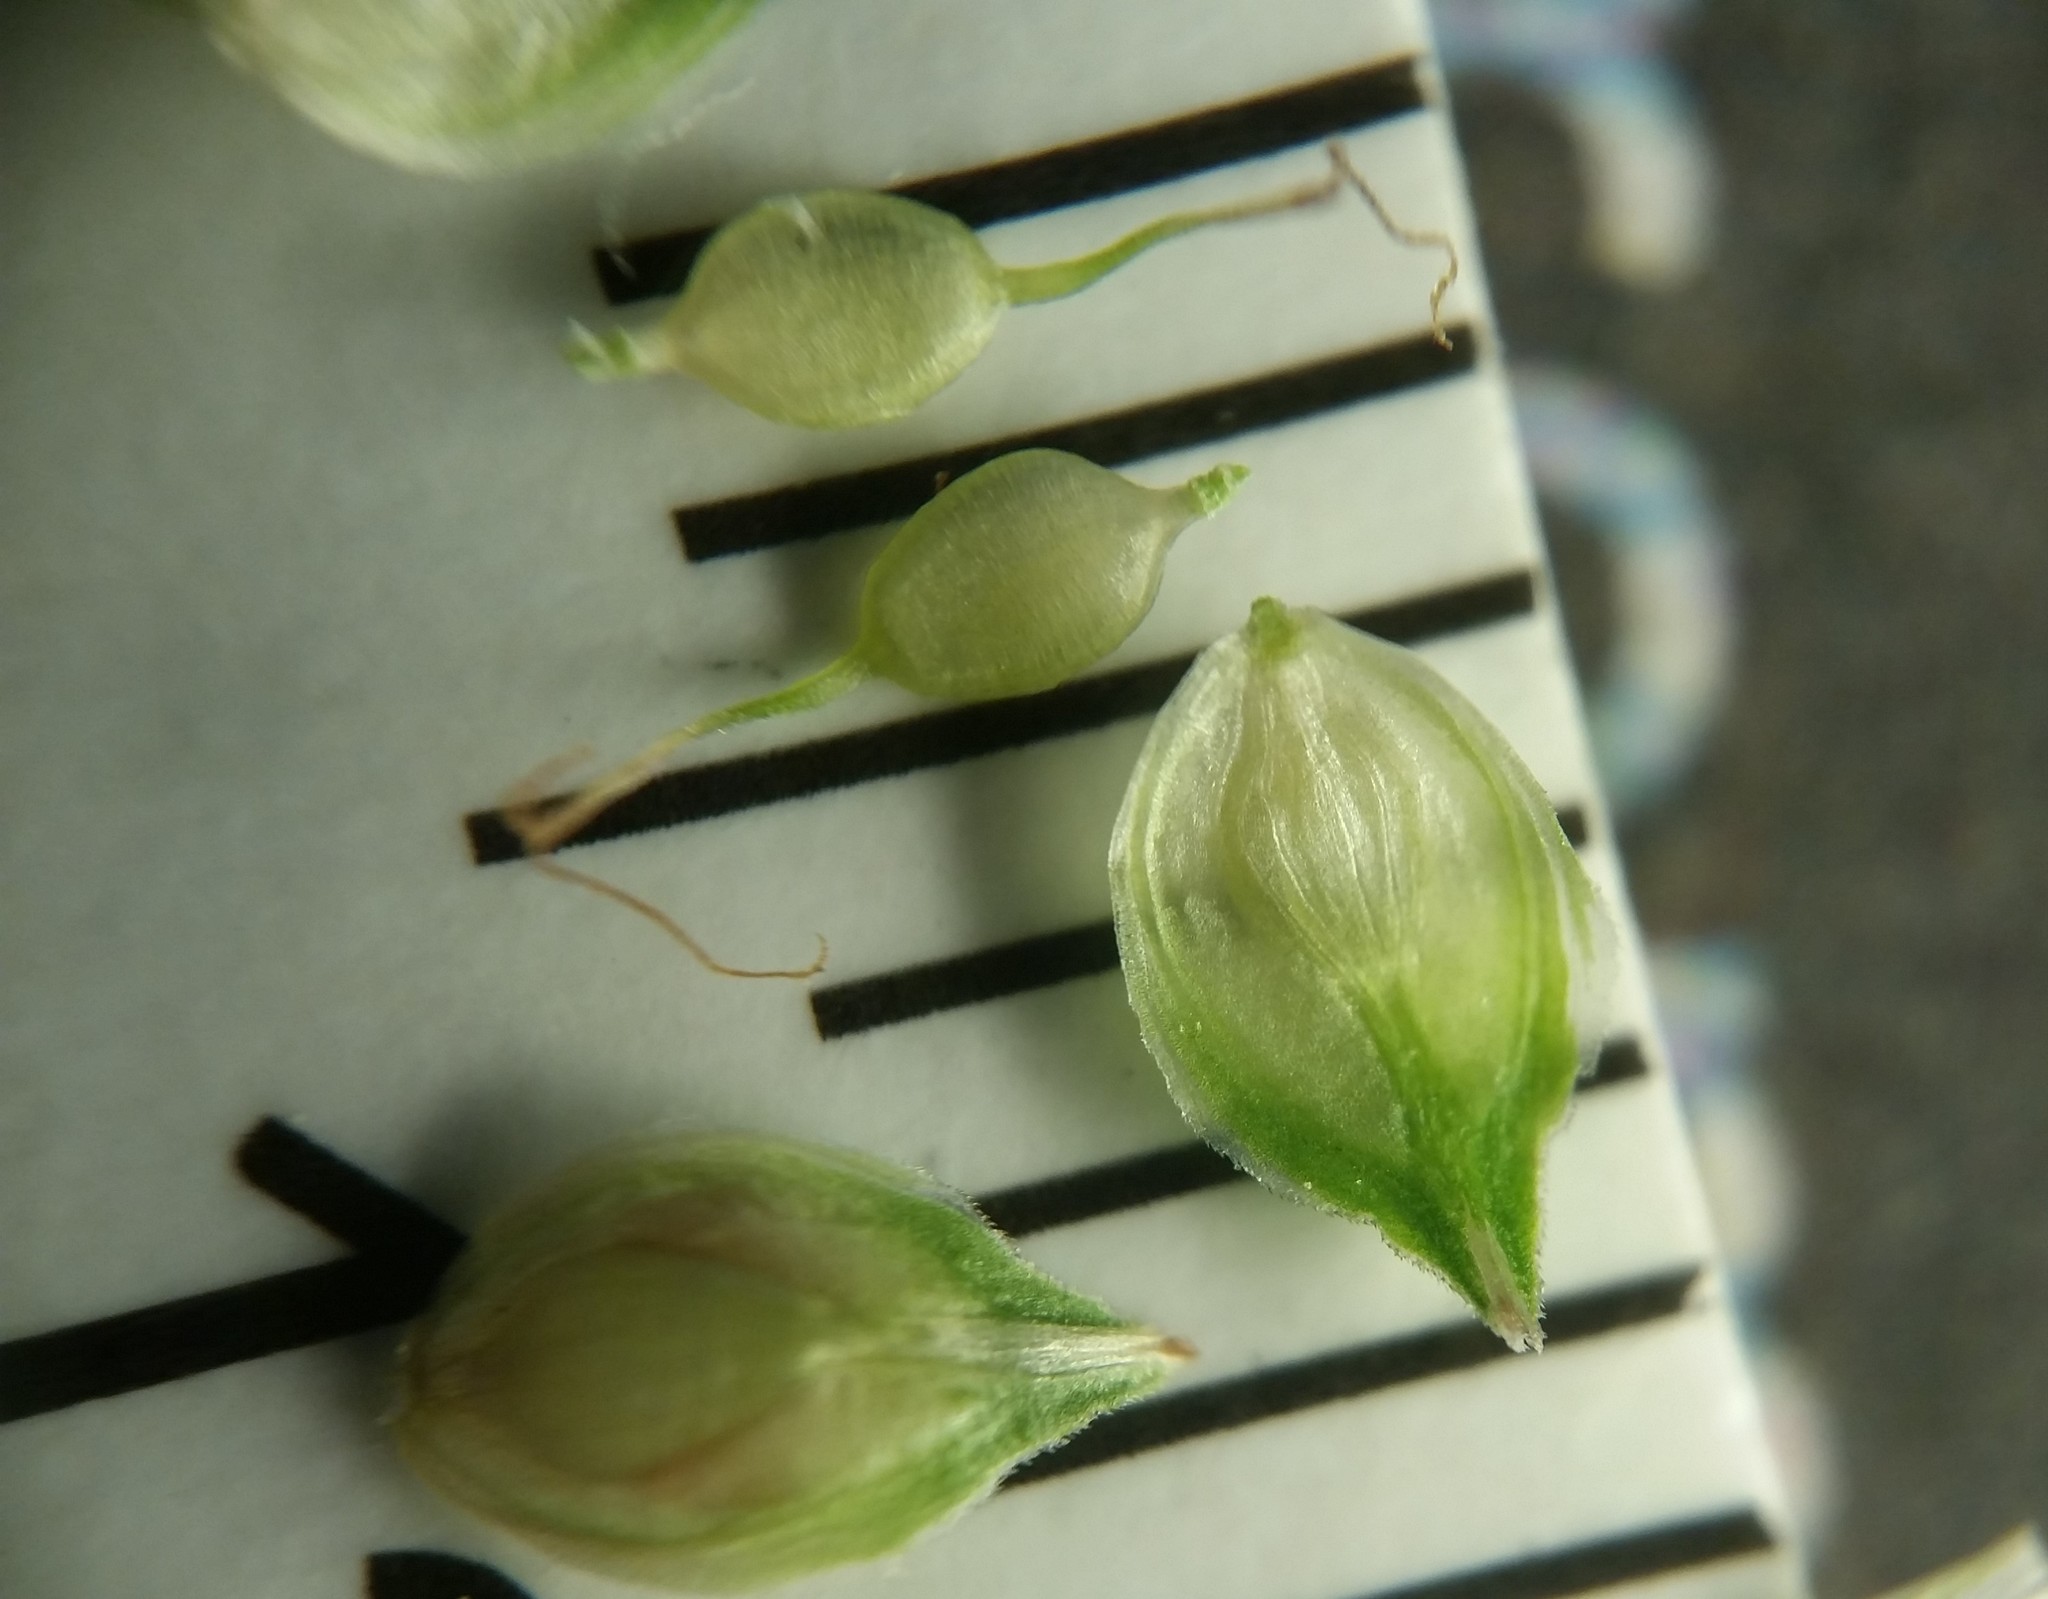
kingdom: Plantae
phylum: Tracheophyta
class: Liliopsida
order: Poales
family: Cyperaceae
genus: Carex
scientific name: Carex longii
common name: Long's sedge
